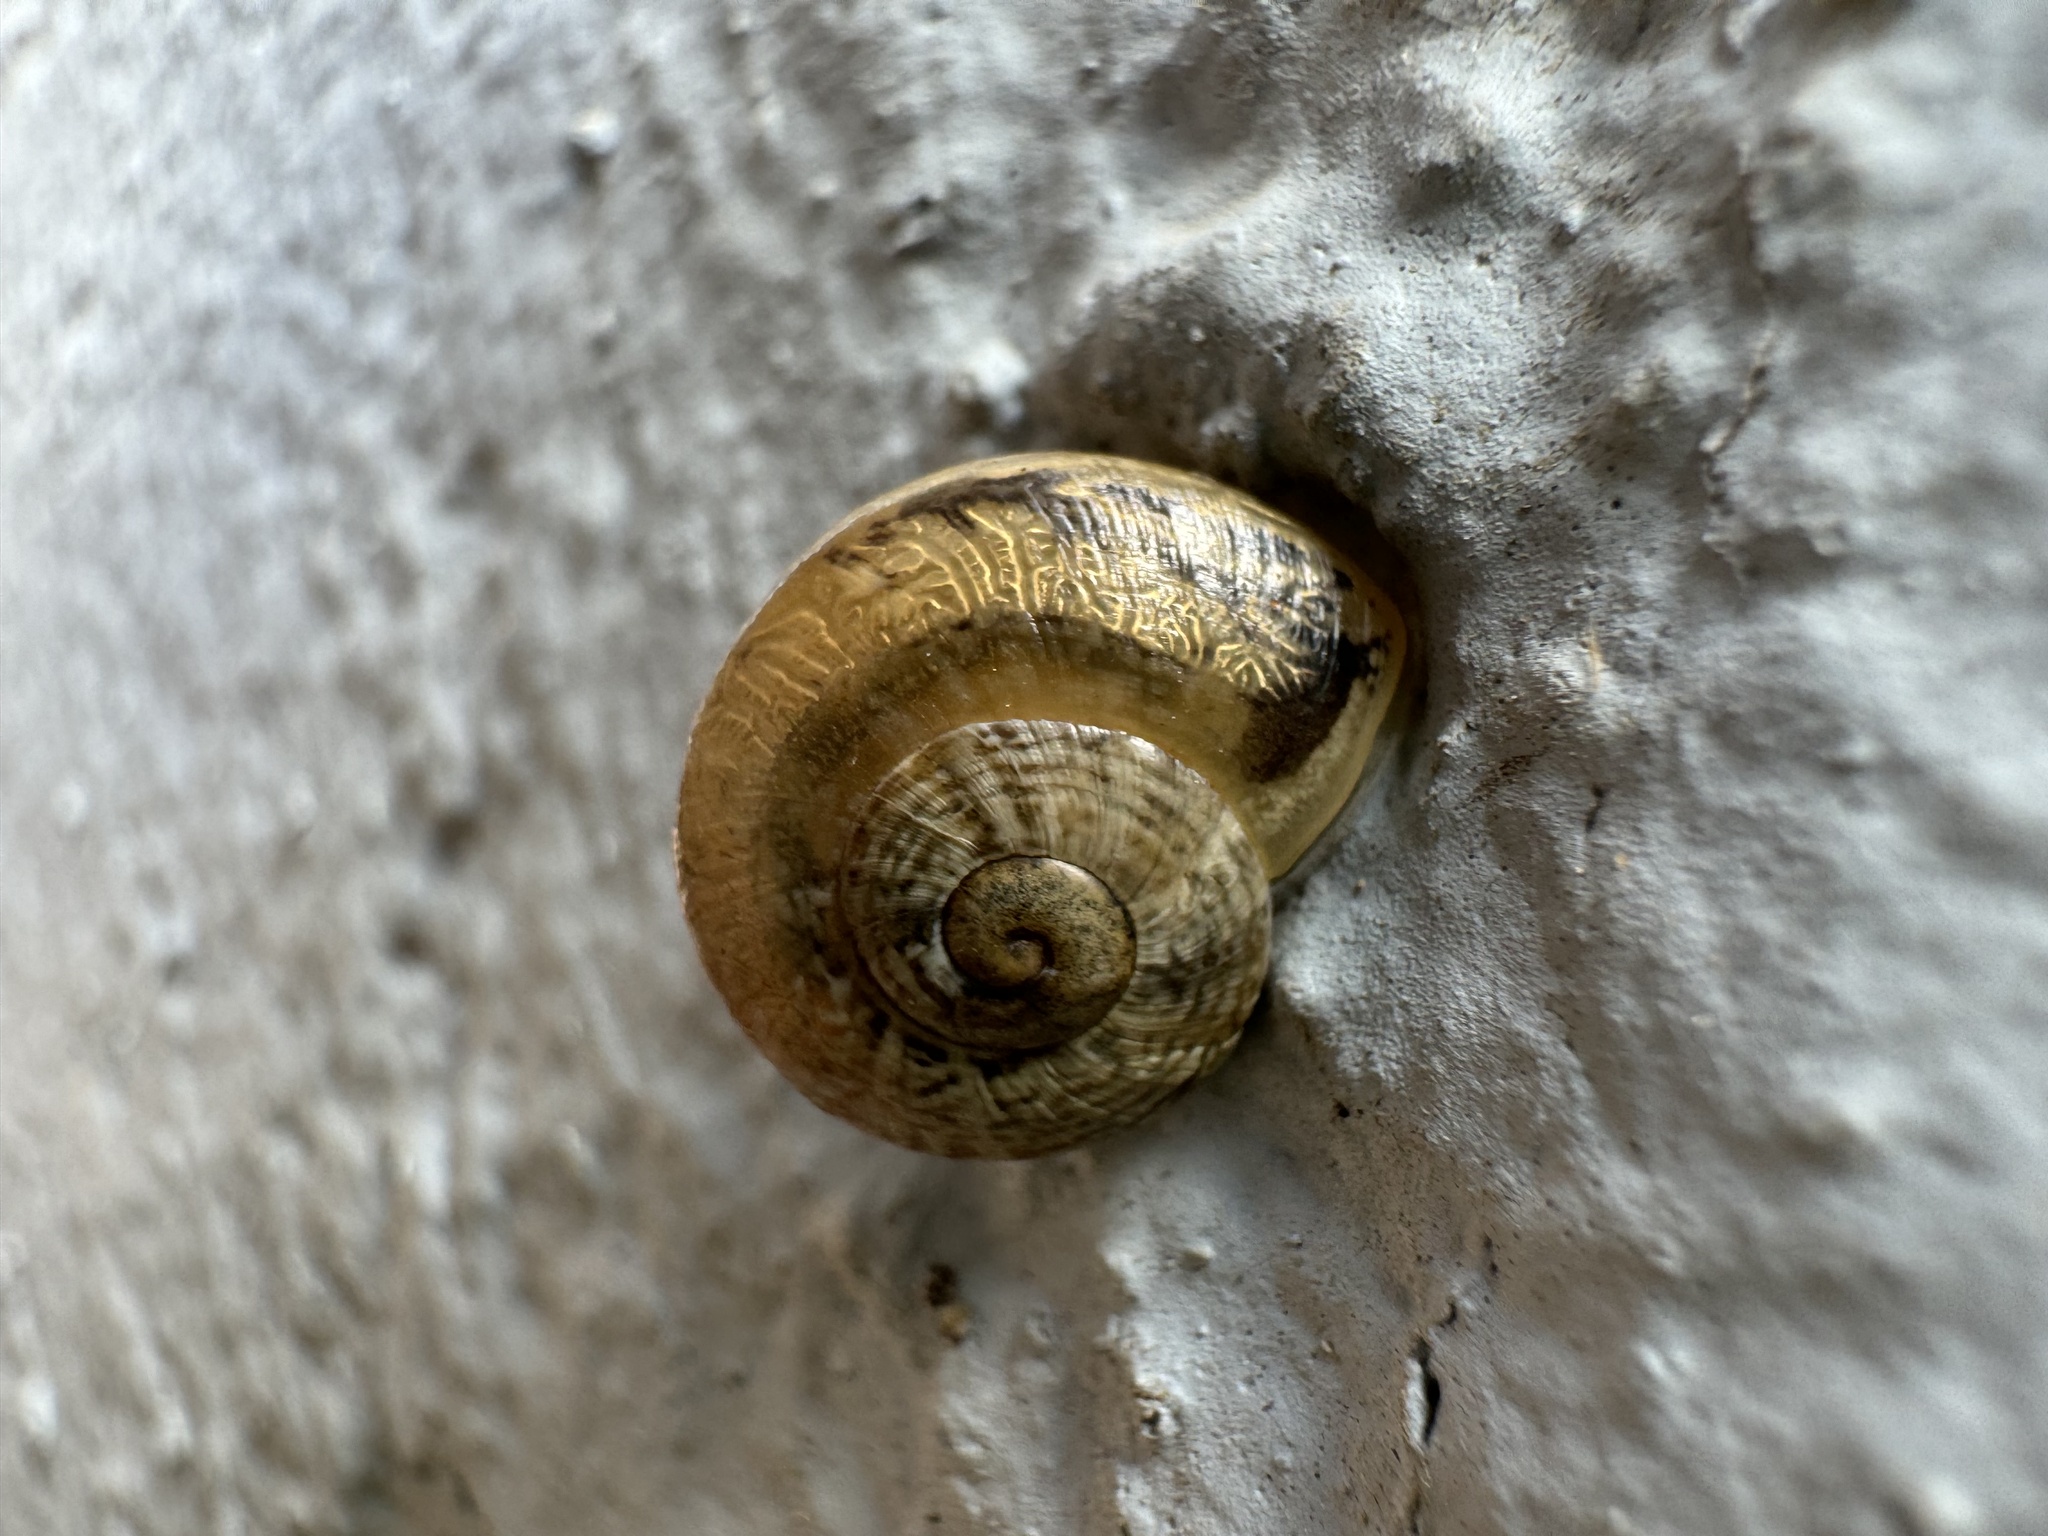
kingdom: Animalia
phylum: Mollusca
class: Gastropoda
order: Stylommatophora
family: Helicidae
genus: Otala
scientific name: Otala lactea
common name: Milk snail
